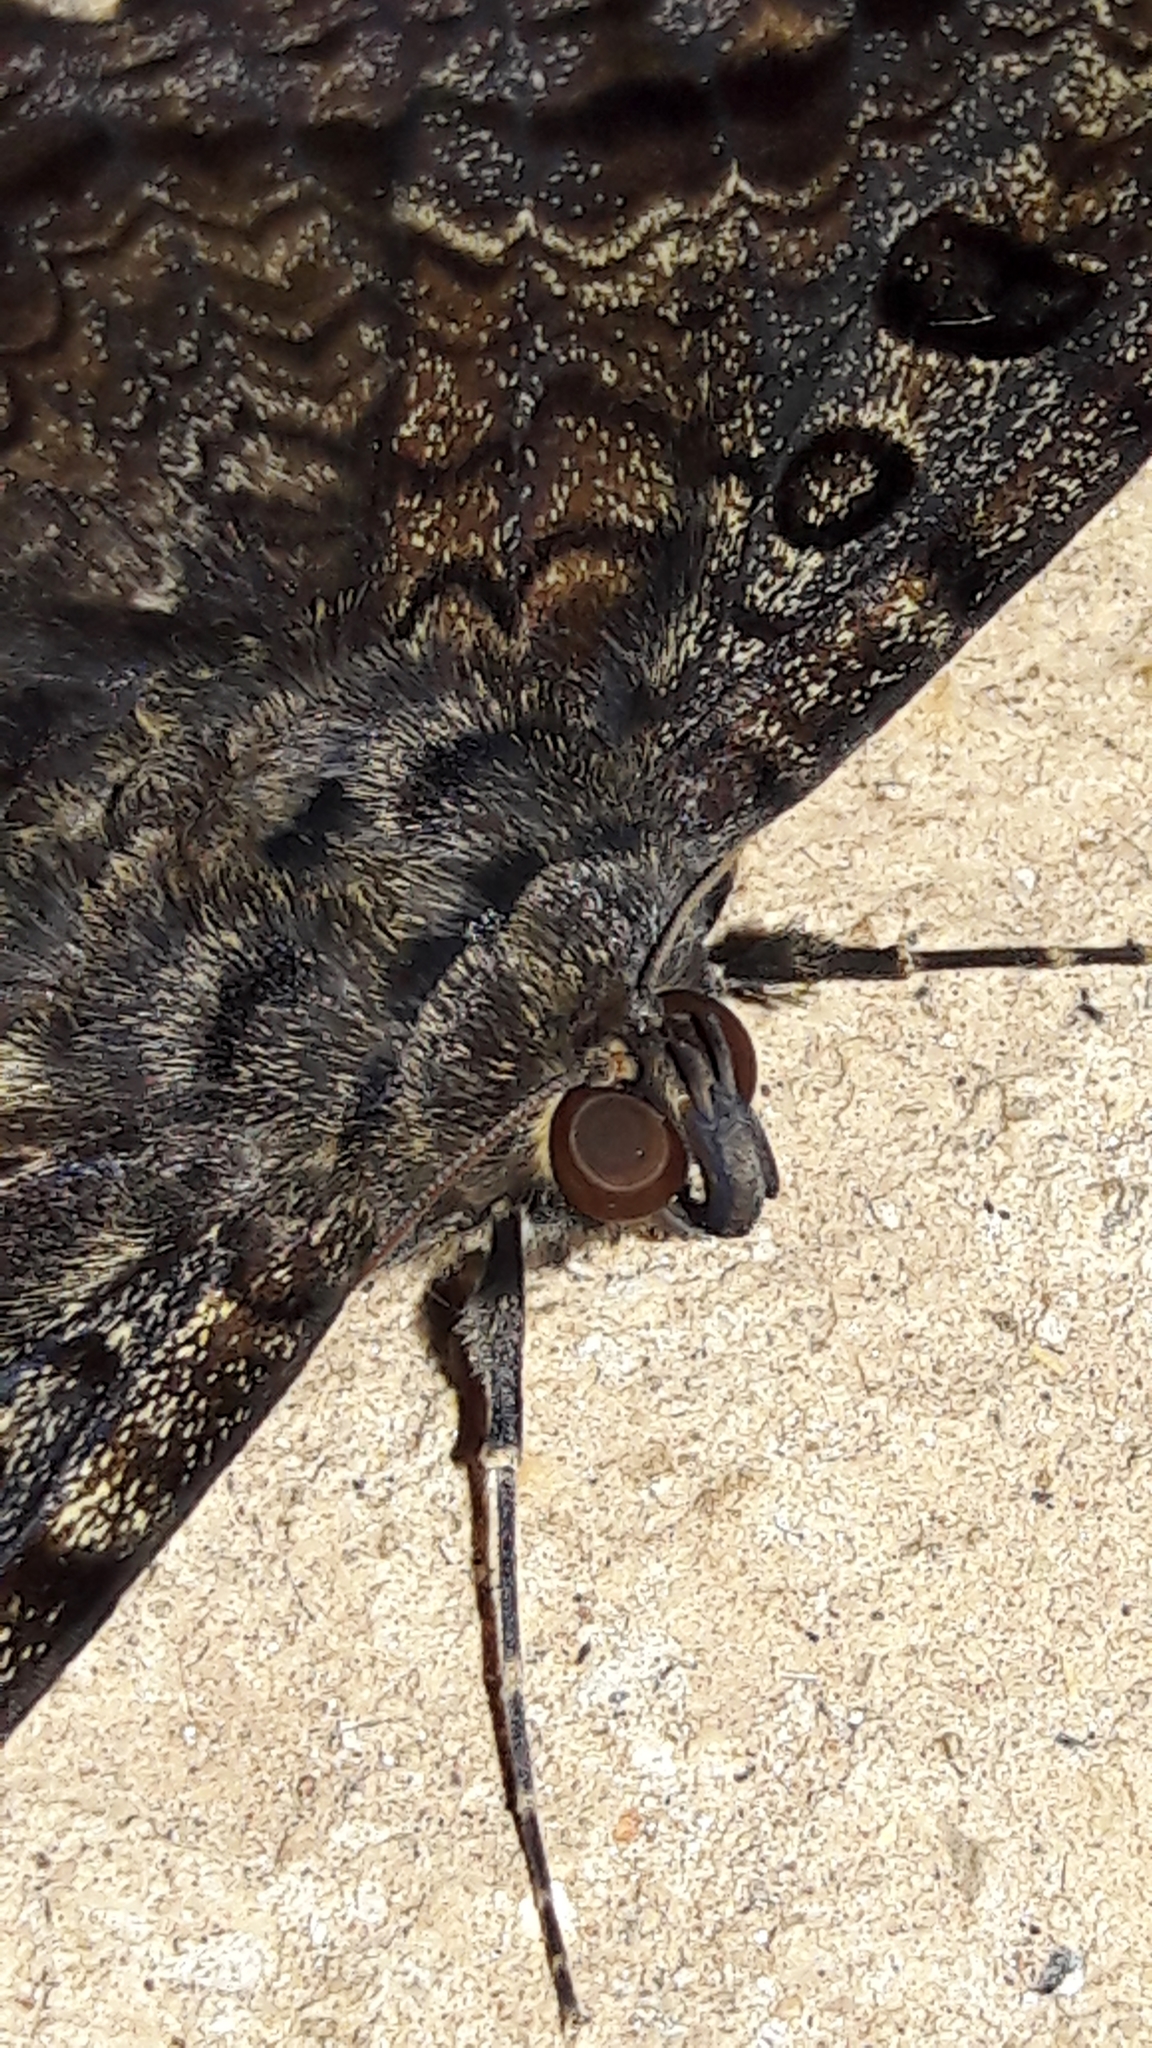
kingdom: Animalia
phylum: Arthropoda
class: Insecta
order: Lepidoptera
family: Erebidae
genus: Feigeria
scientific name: Feigeria scops
